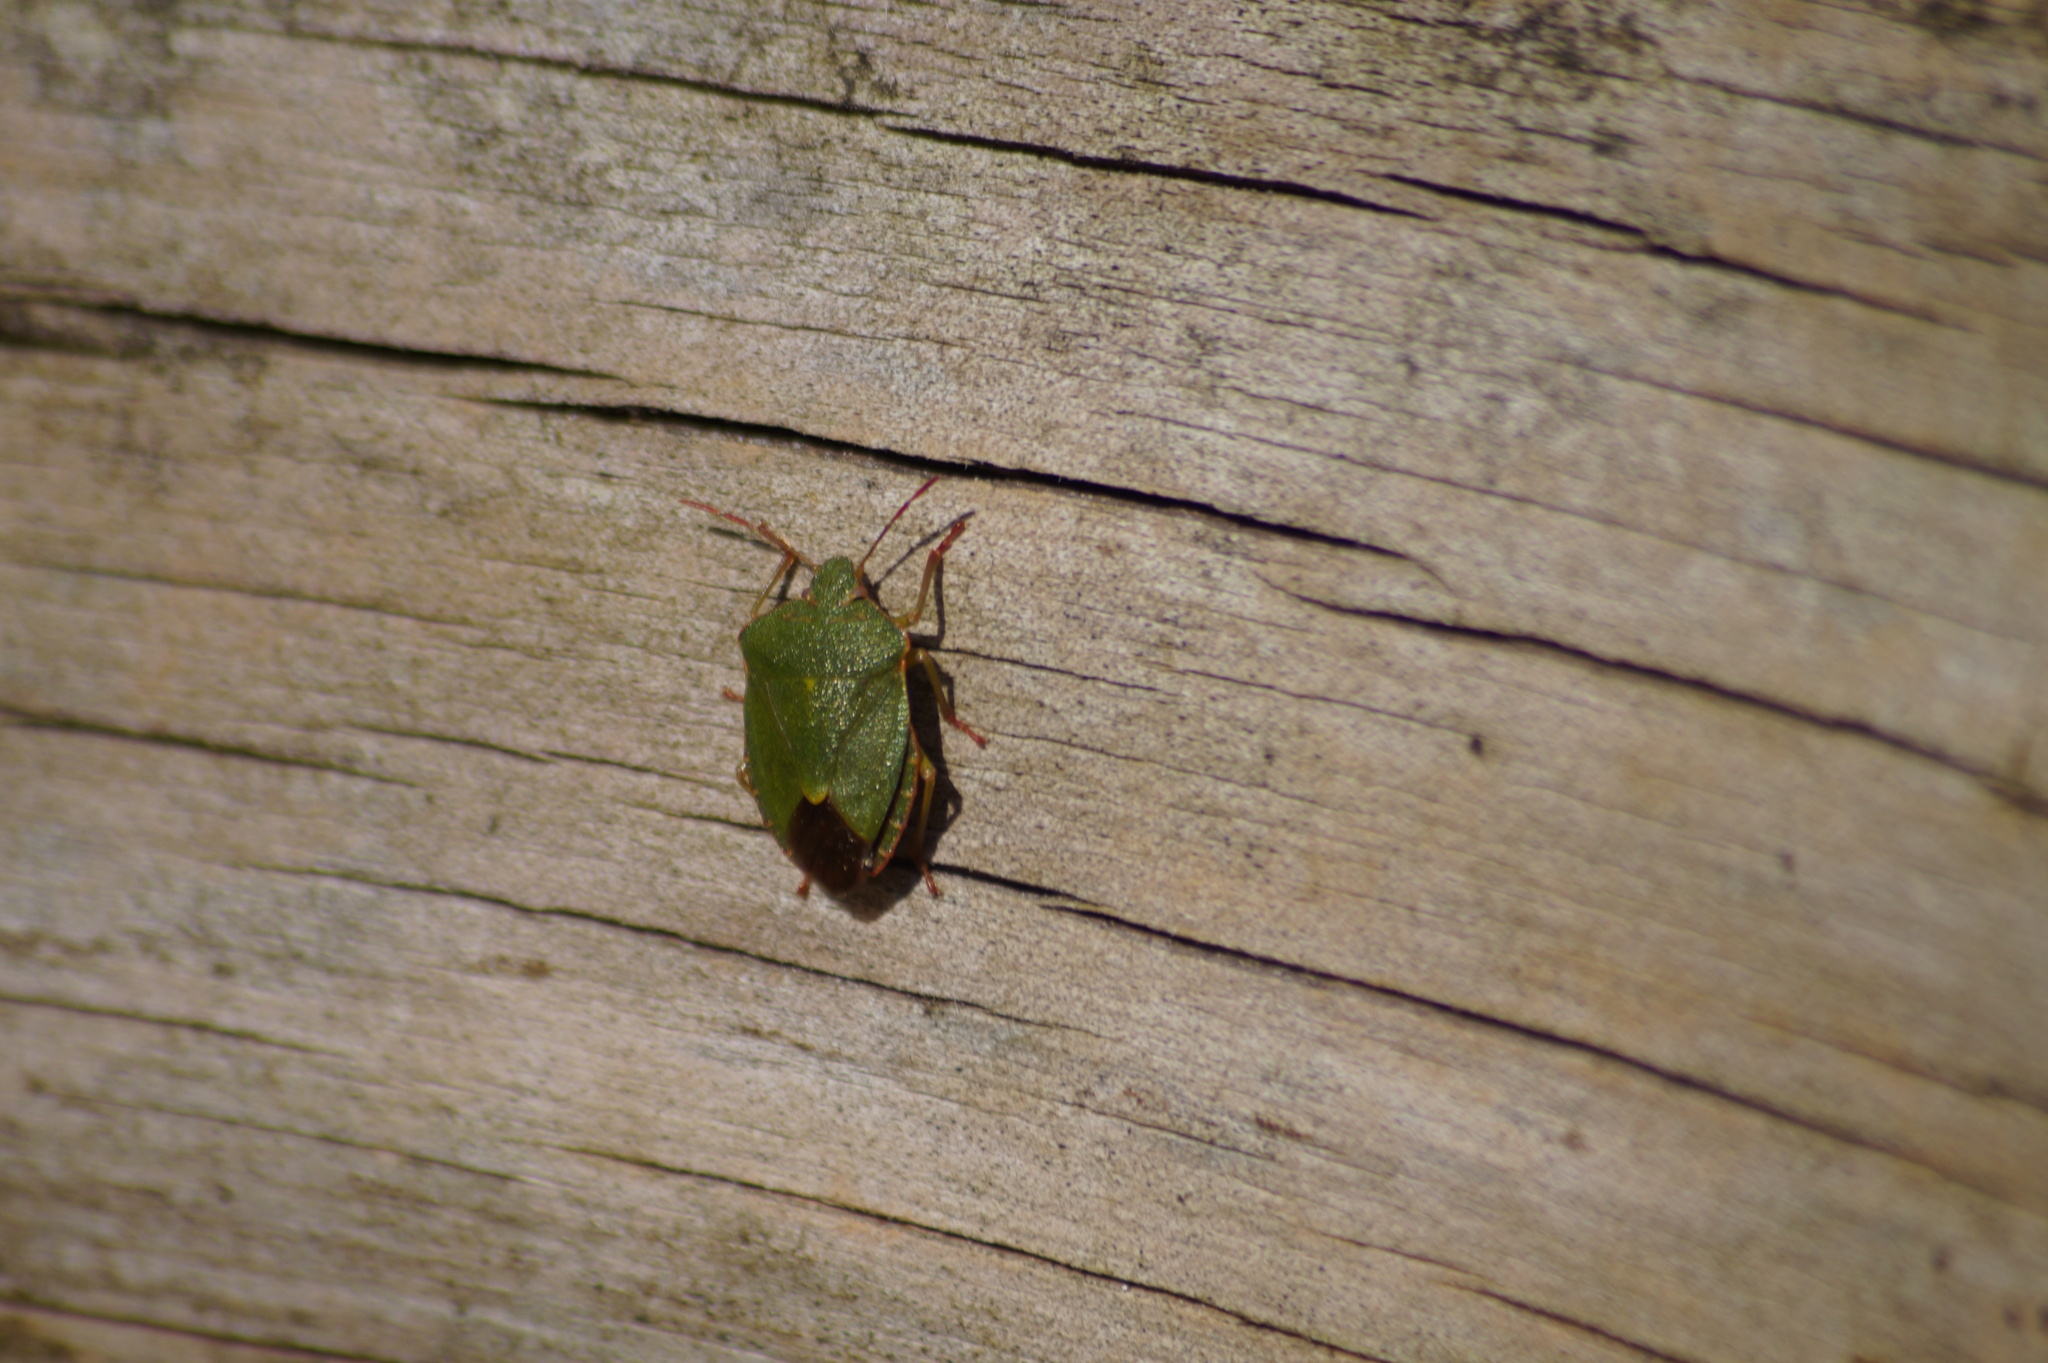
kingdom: Animalia
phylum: Arthropoda
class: Insecta
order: Hemiptera
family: Pentatomidae
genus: Palomena
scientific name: Palomena prasina
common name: Green shieldbug
